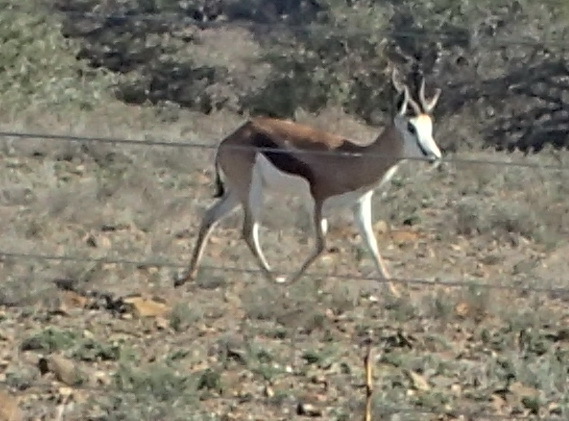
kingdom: Animalia
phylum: Chordata
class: Mammalia
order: Artiodactyla
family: Bovidae
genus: Antidorcas
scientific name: Antidorcas marsupialis
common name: Springbok
